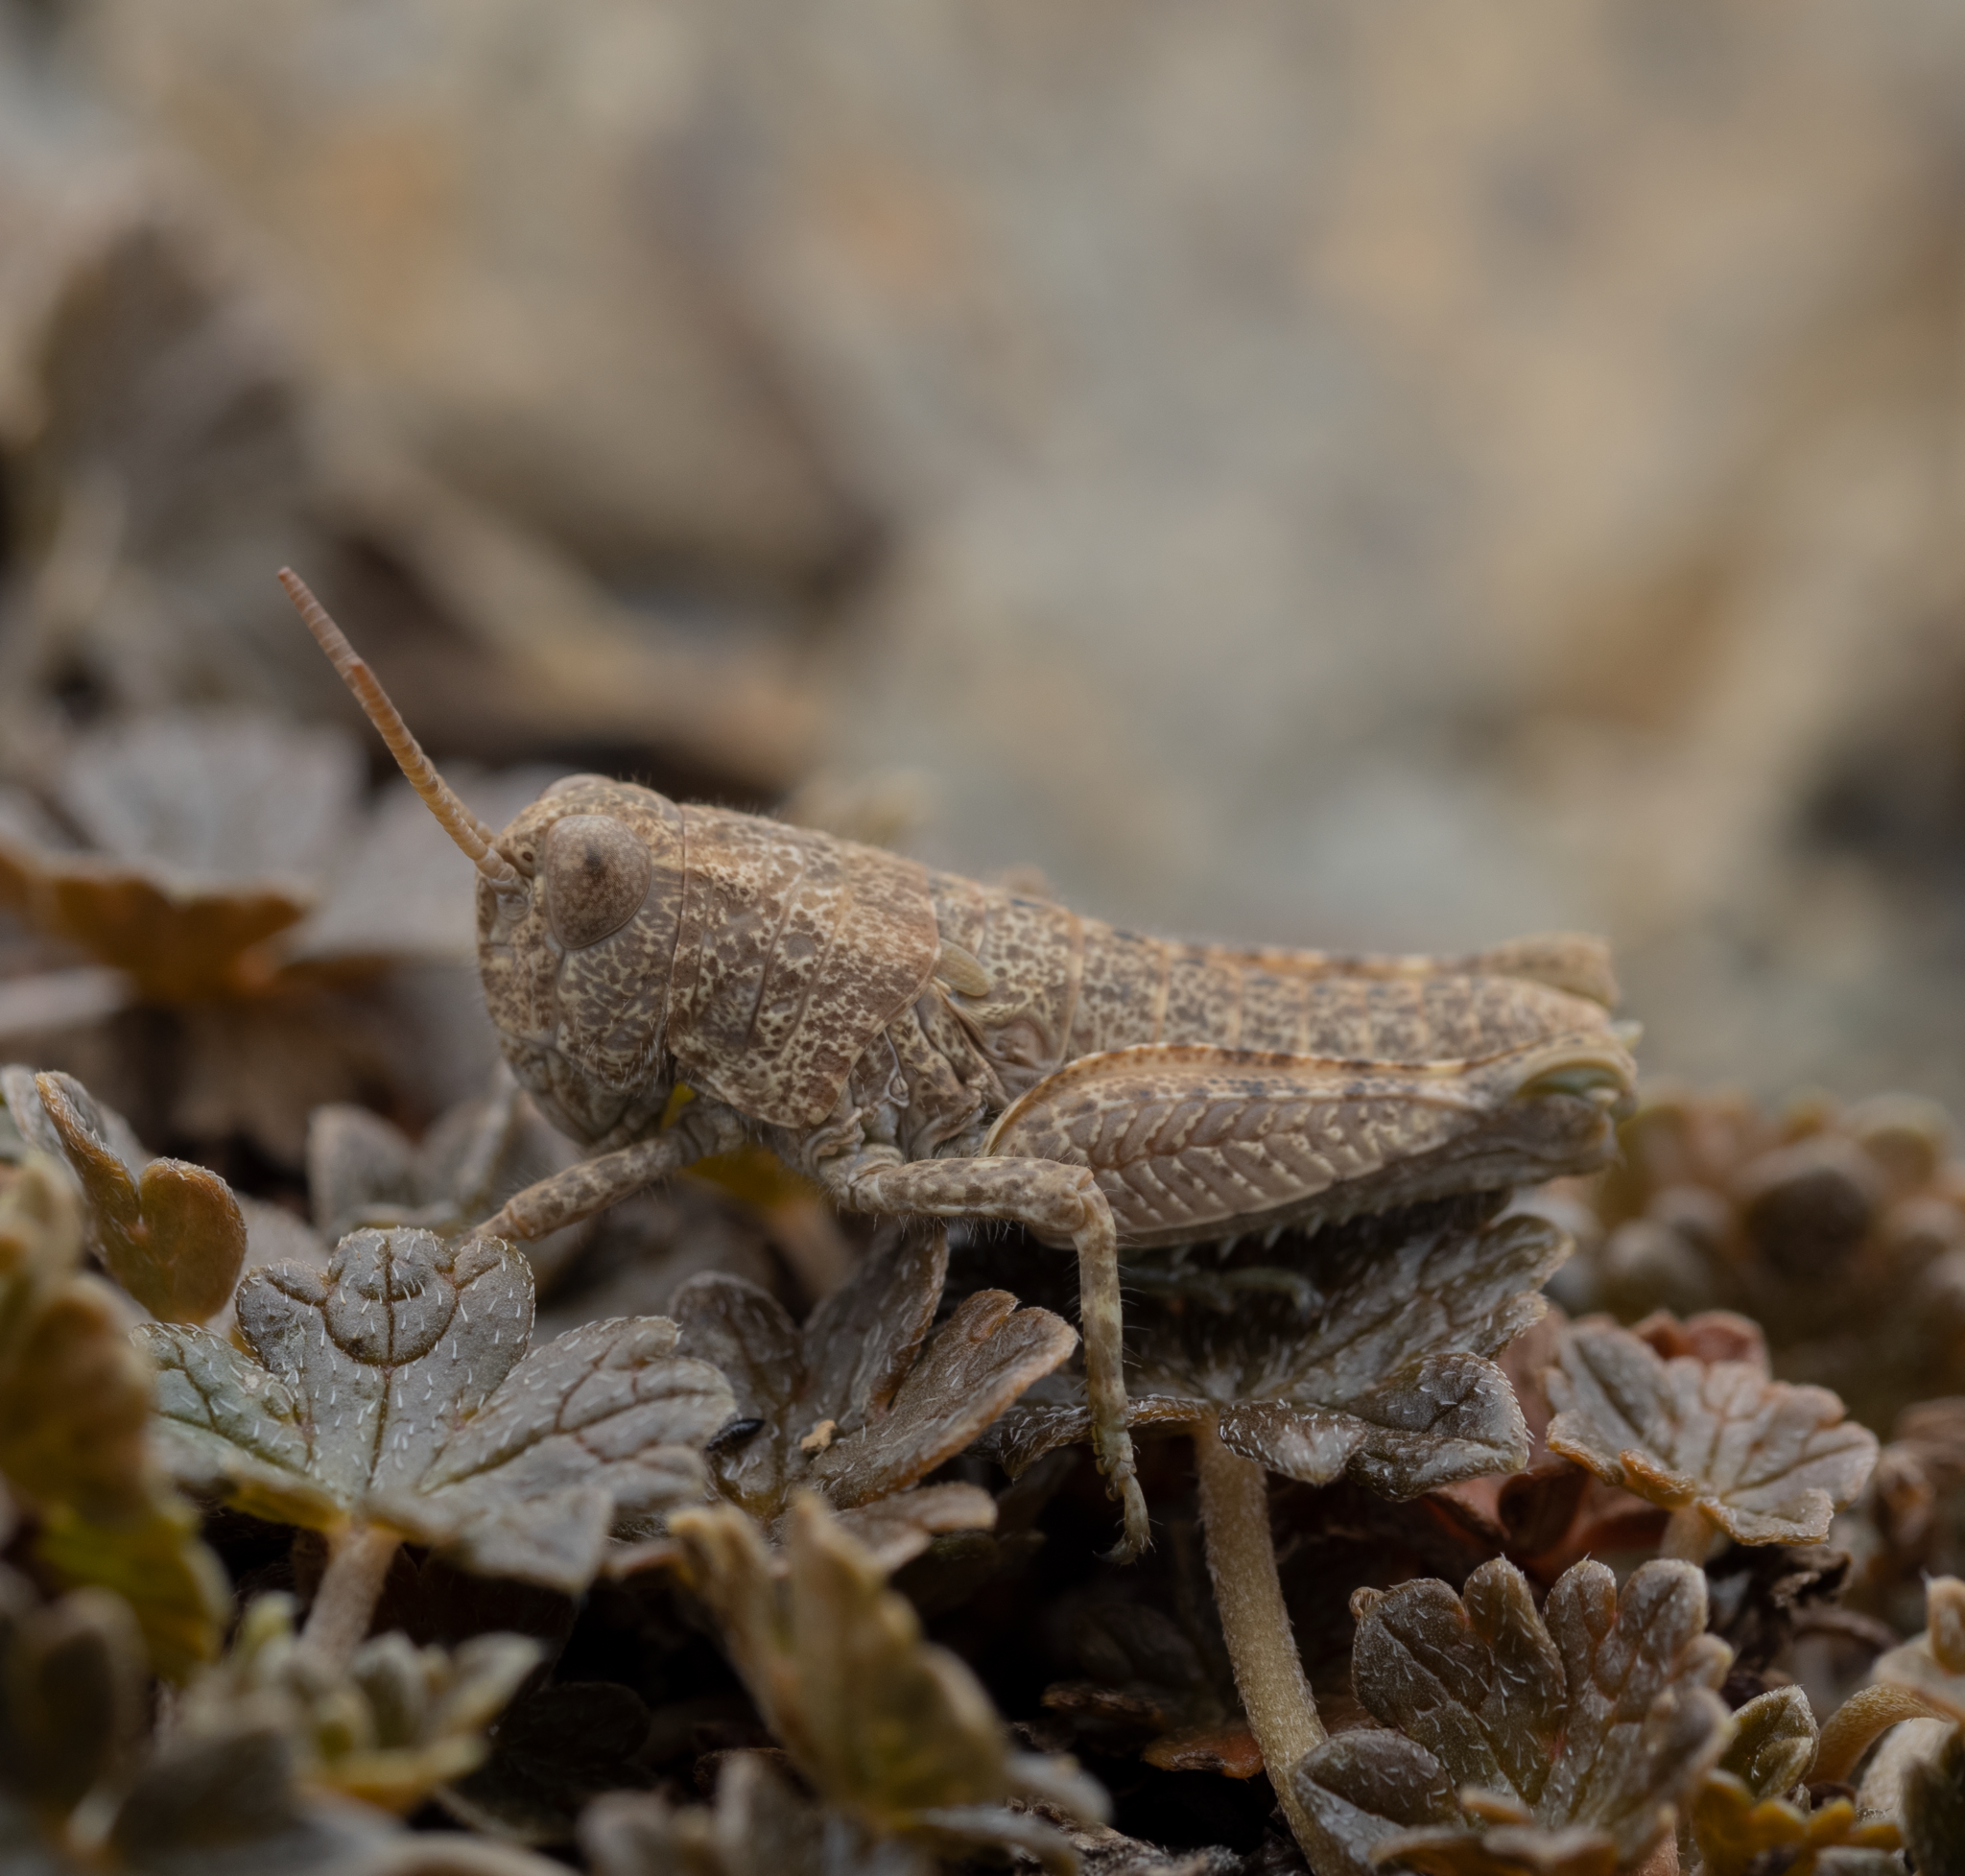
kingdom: Animalia
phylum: Arthropoda
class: Insecta
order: Orthoptera
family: Acrididae
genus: Sigaus
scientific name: Sigaus
